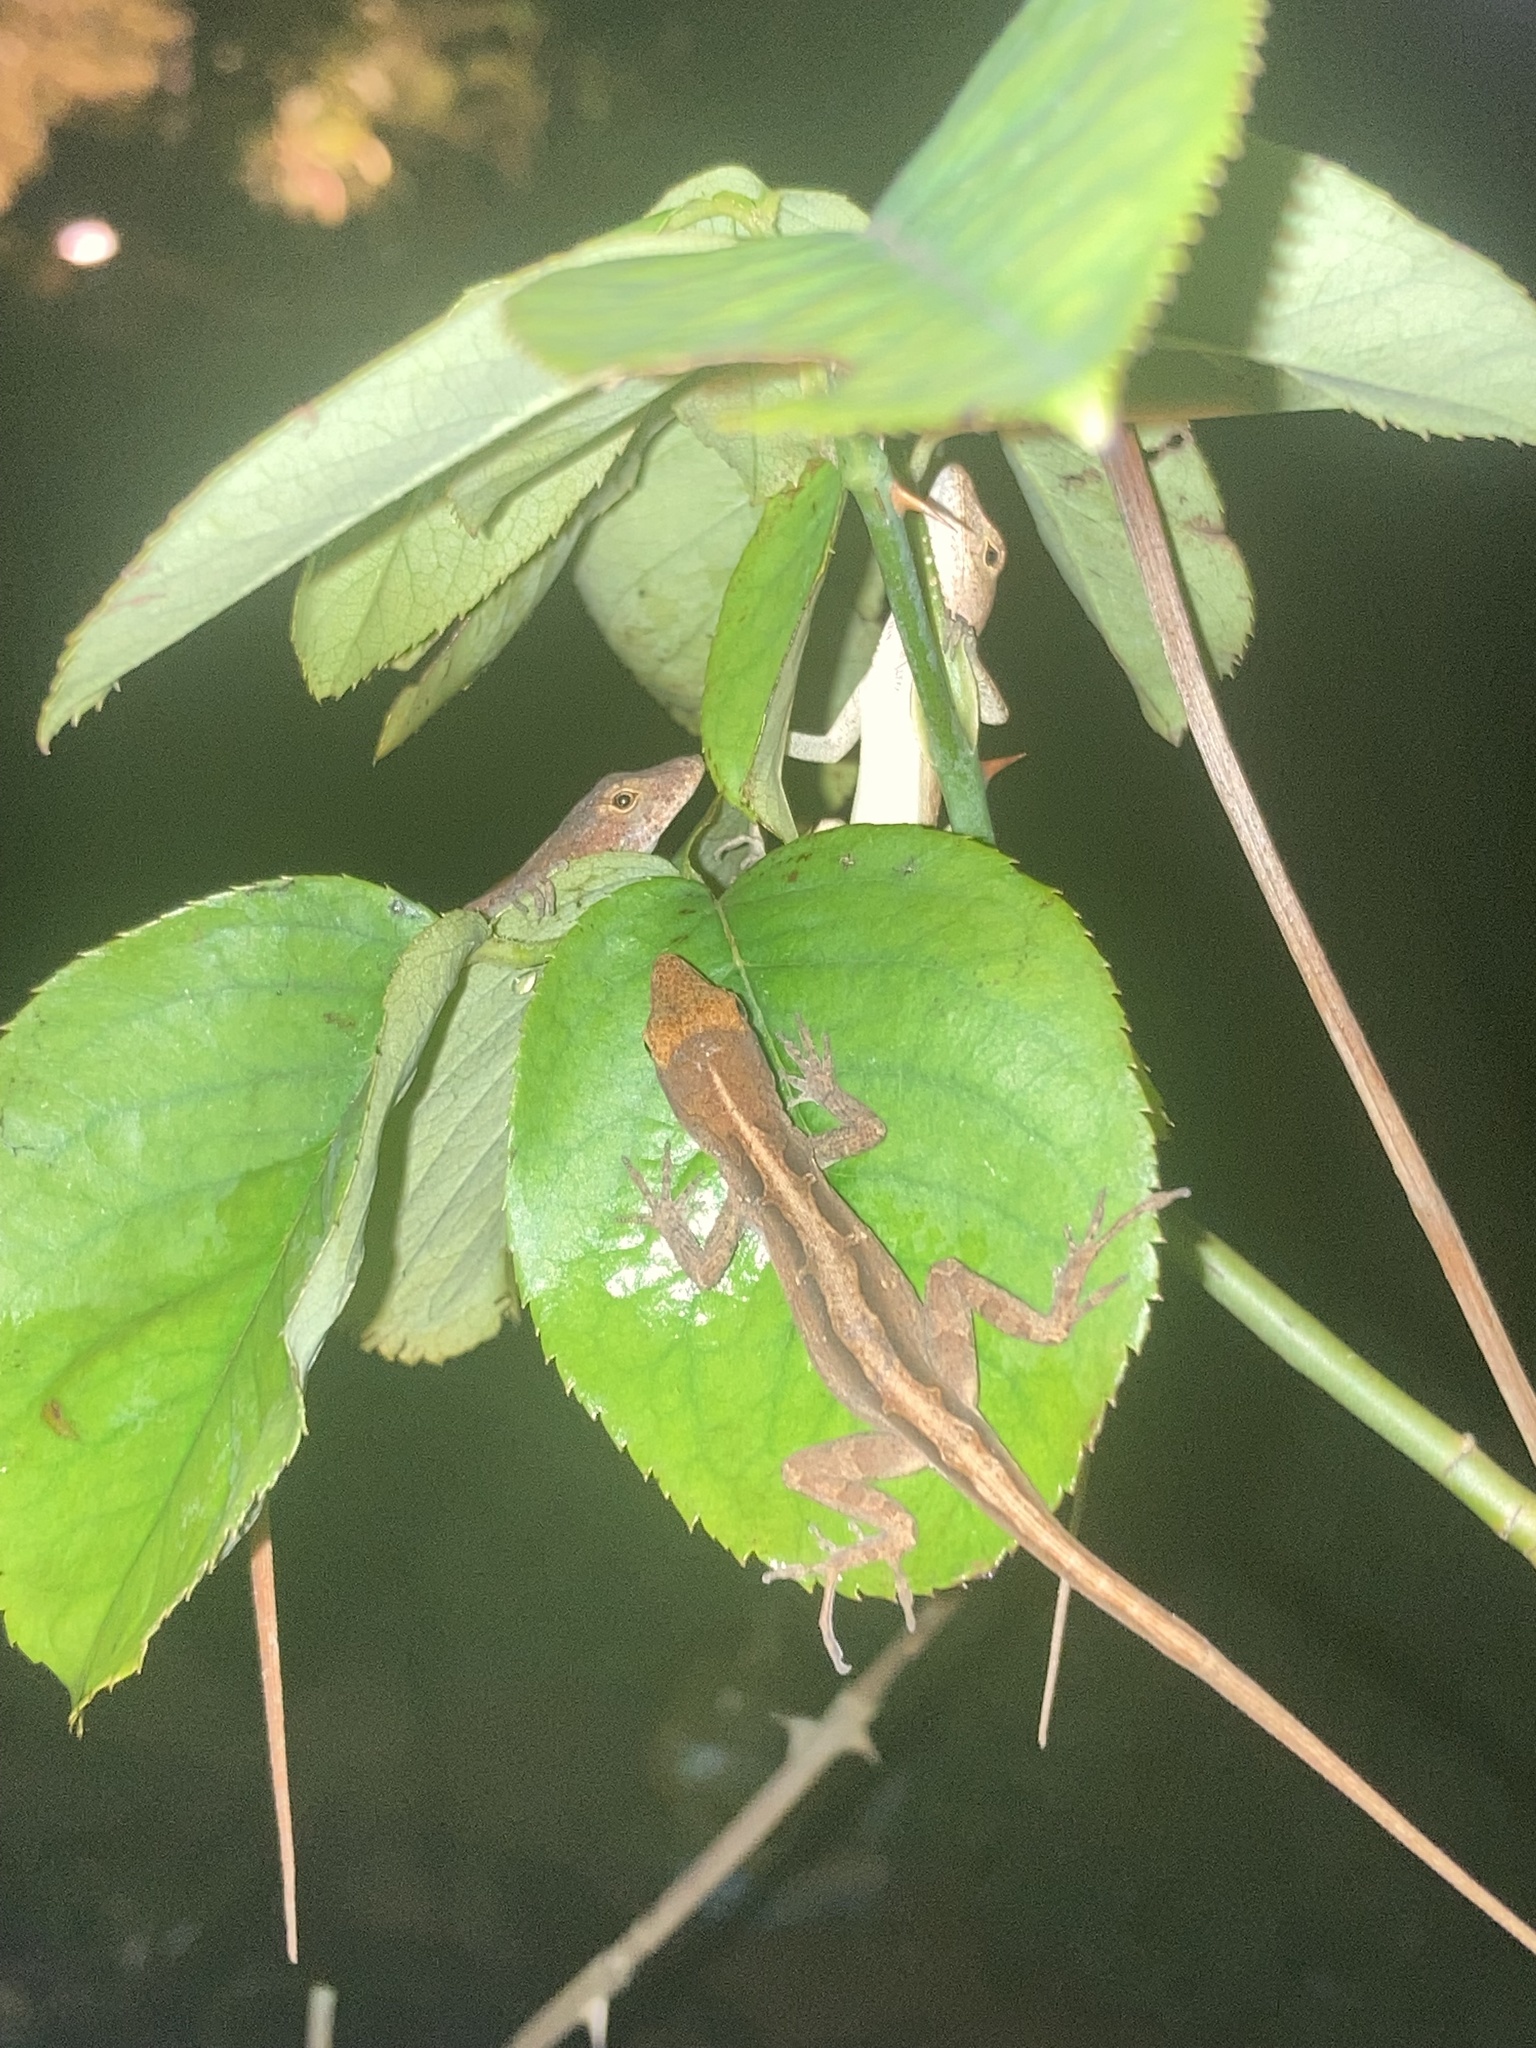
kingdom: Animalia
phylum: Chordata
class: Squamata
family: Dactyloidae
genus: Anolis
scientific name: Anolis sagrei
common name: Brown anole
